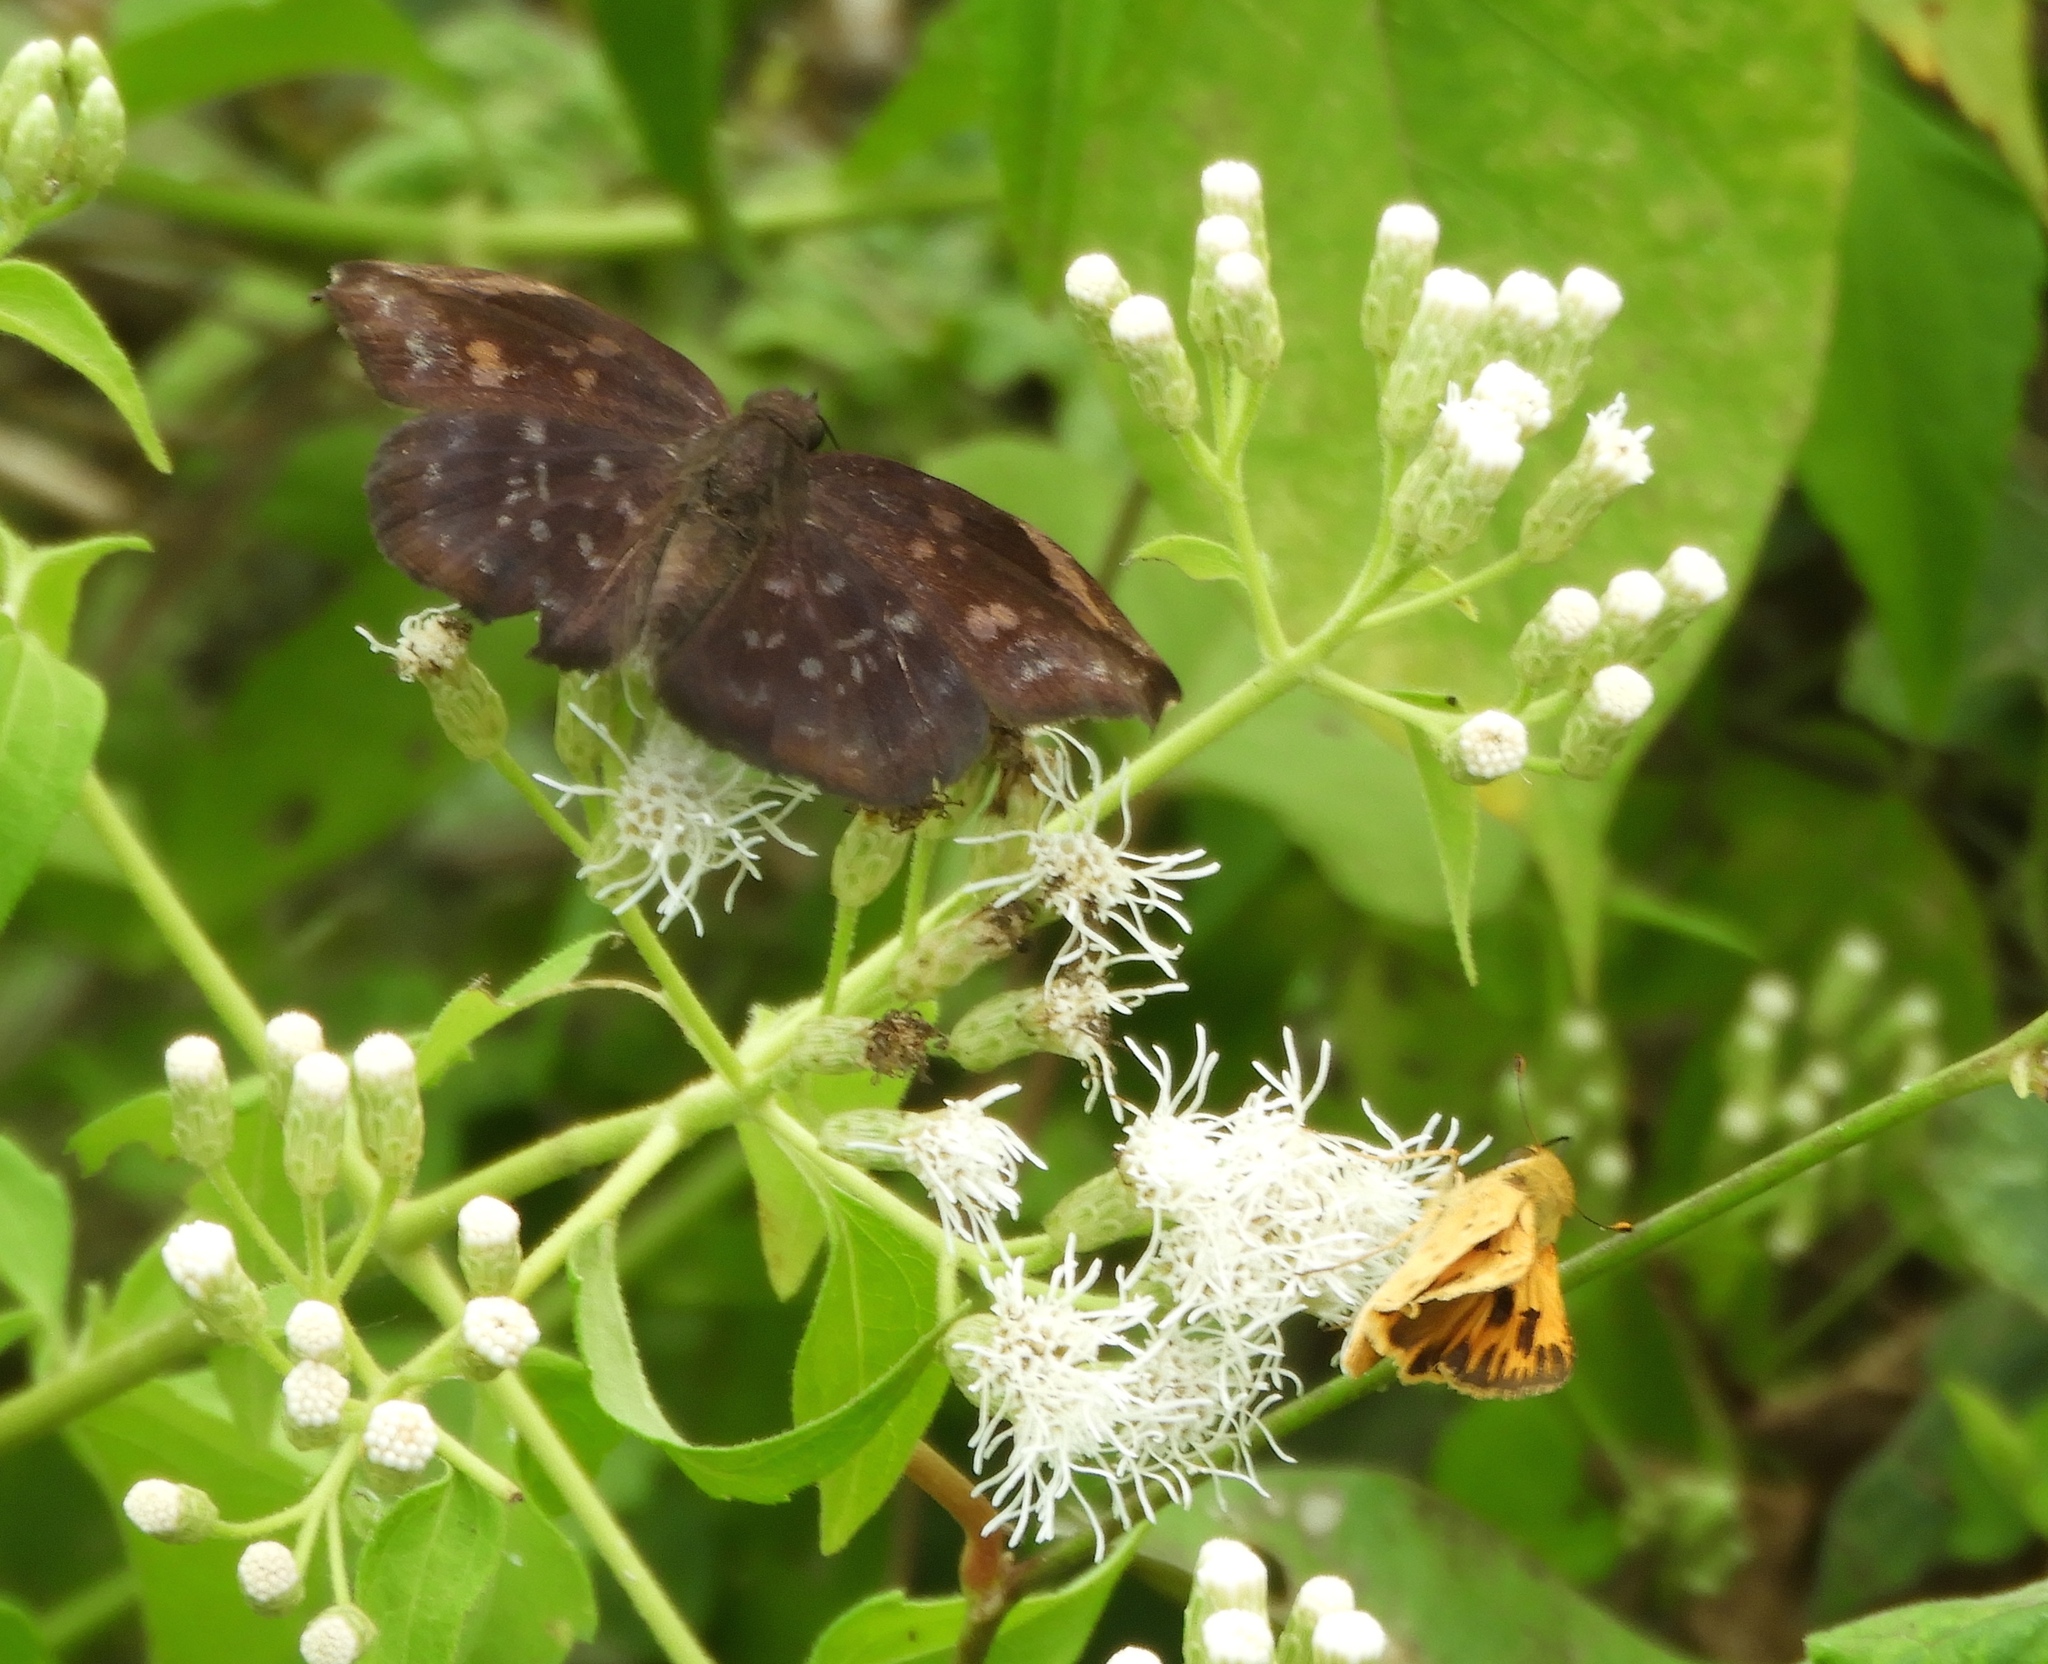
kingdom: Animalia
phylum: Arthropoda
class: Insecta
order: Lepidoptera
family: Hesperiidae
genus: Achlyodes
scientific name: Achlyodes thraso
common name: Sickle-winged skipper
